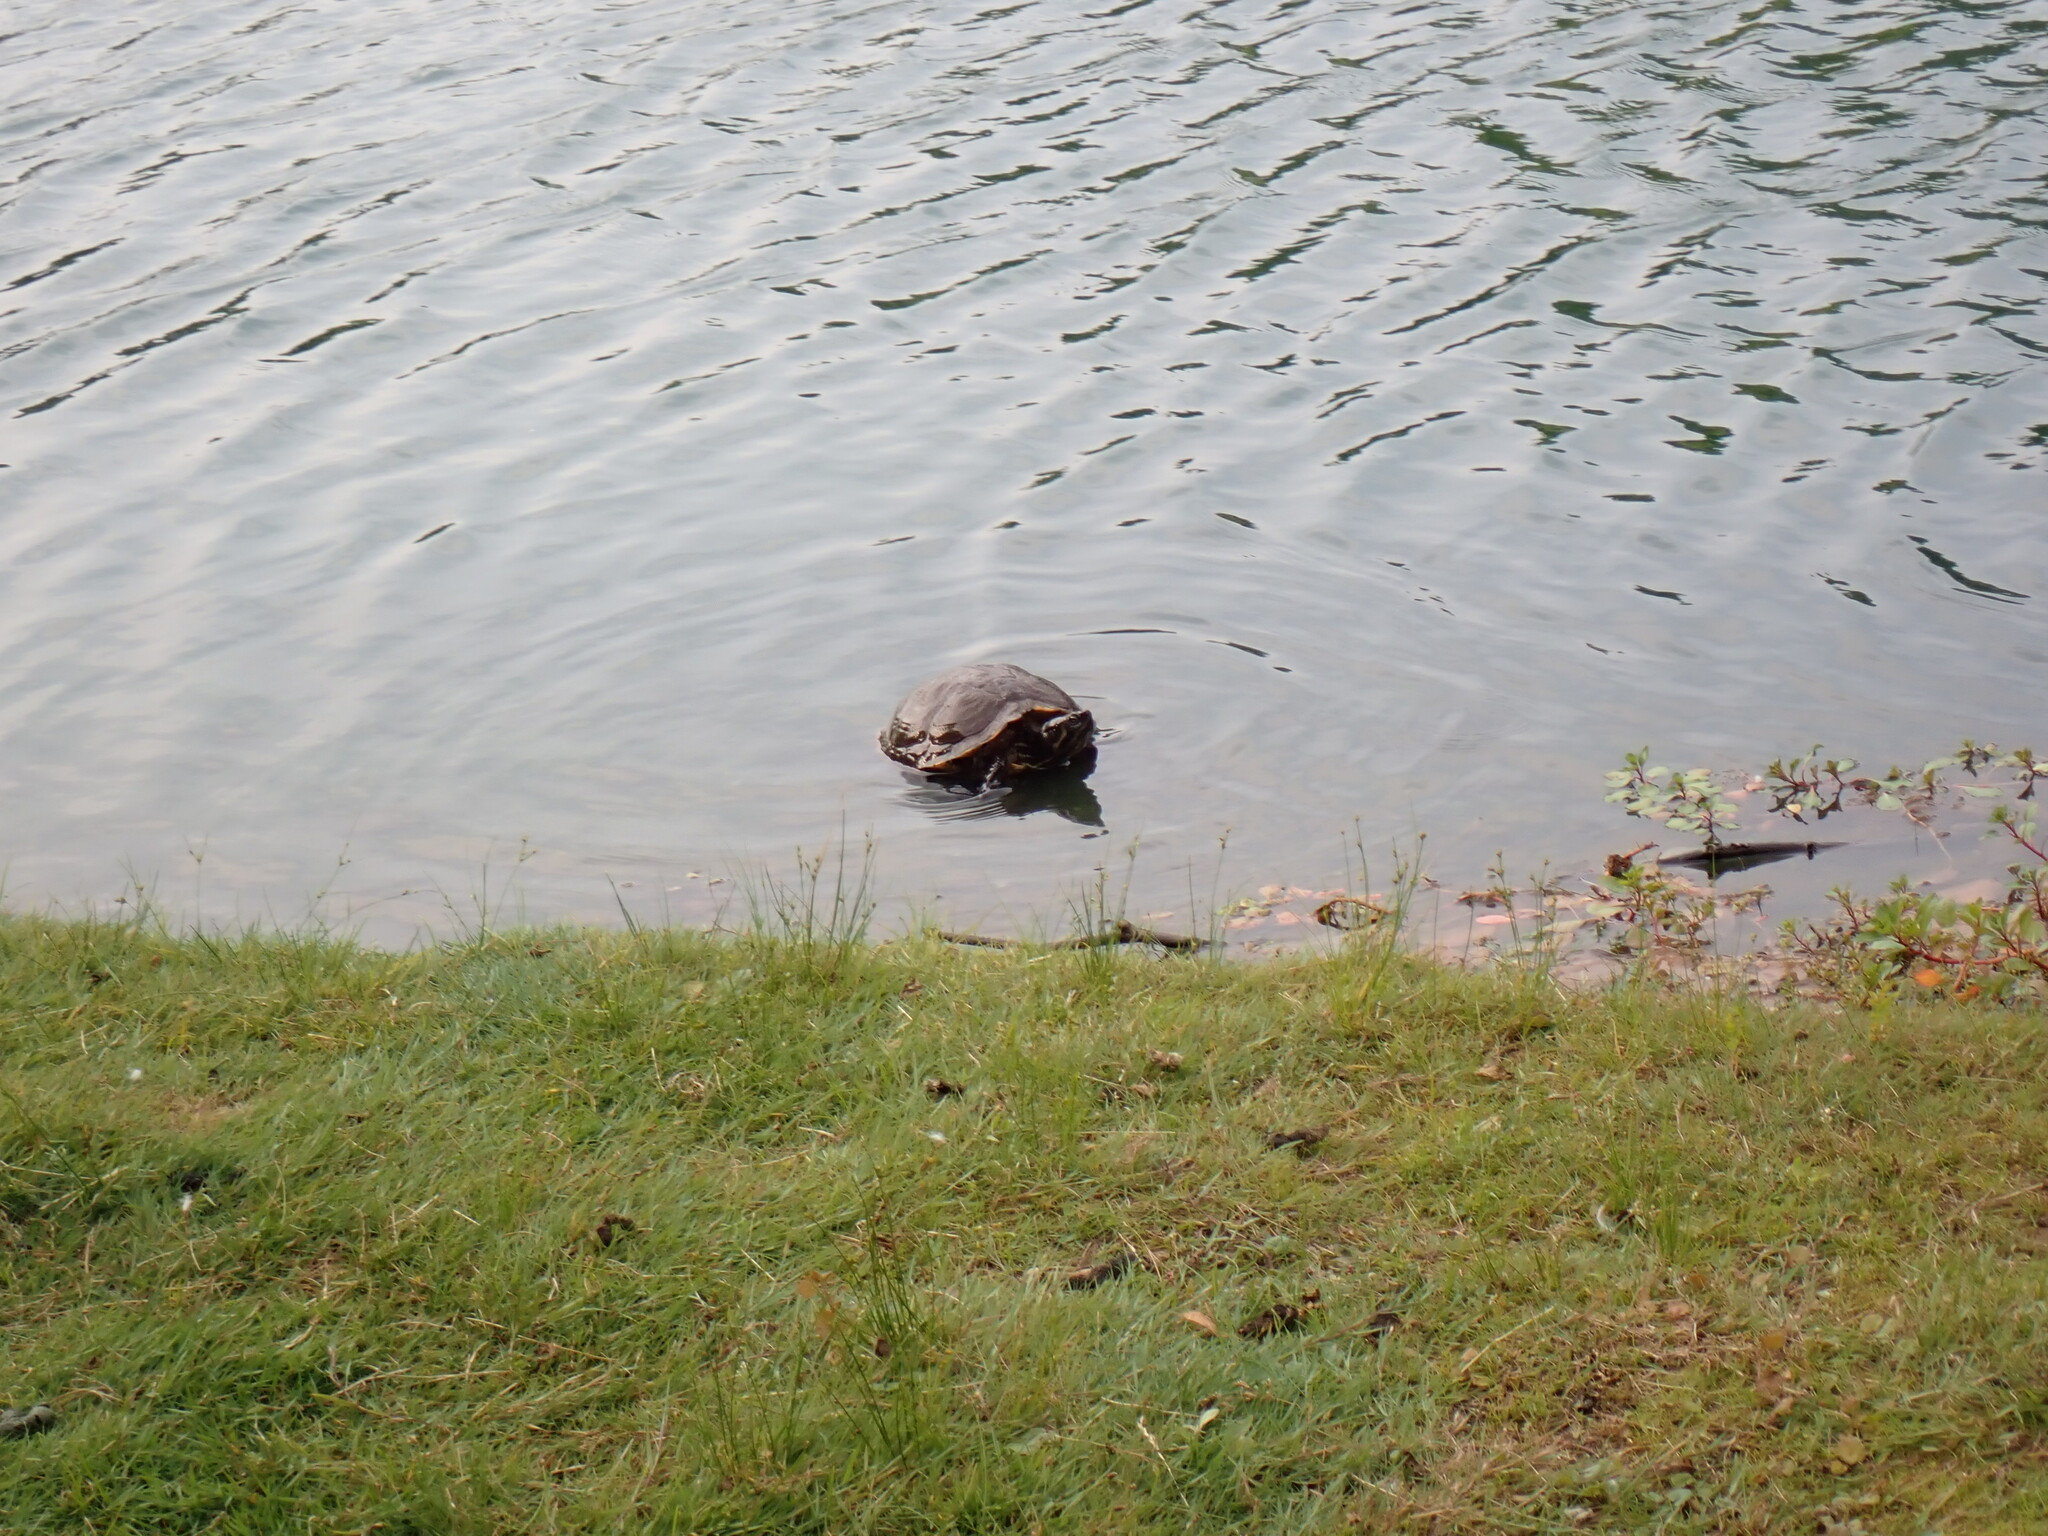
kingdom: Animalia
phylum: Chordata
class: Testudines
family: Emydidae
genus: Trachemys
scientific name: Trachemys scripta
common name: Slider
